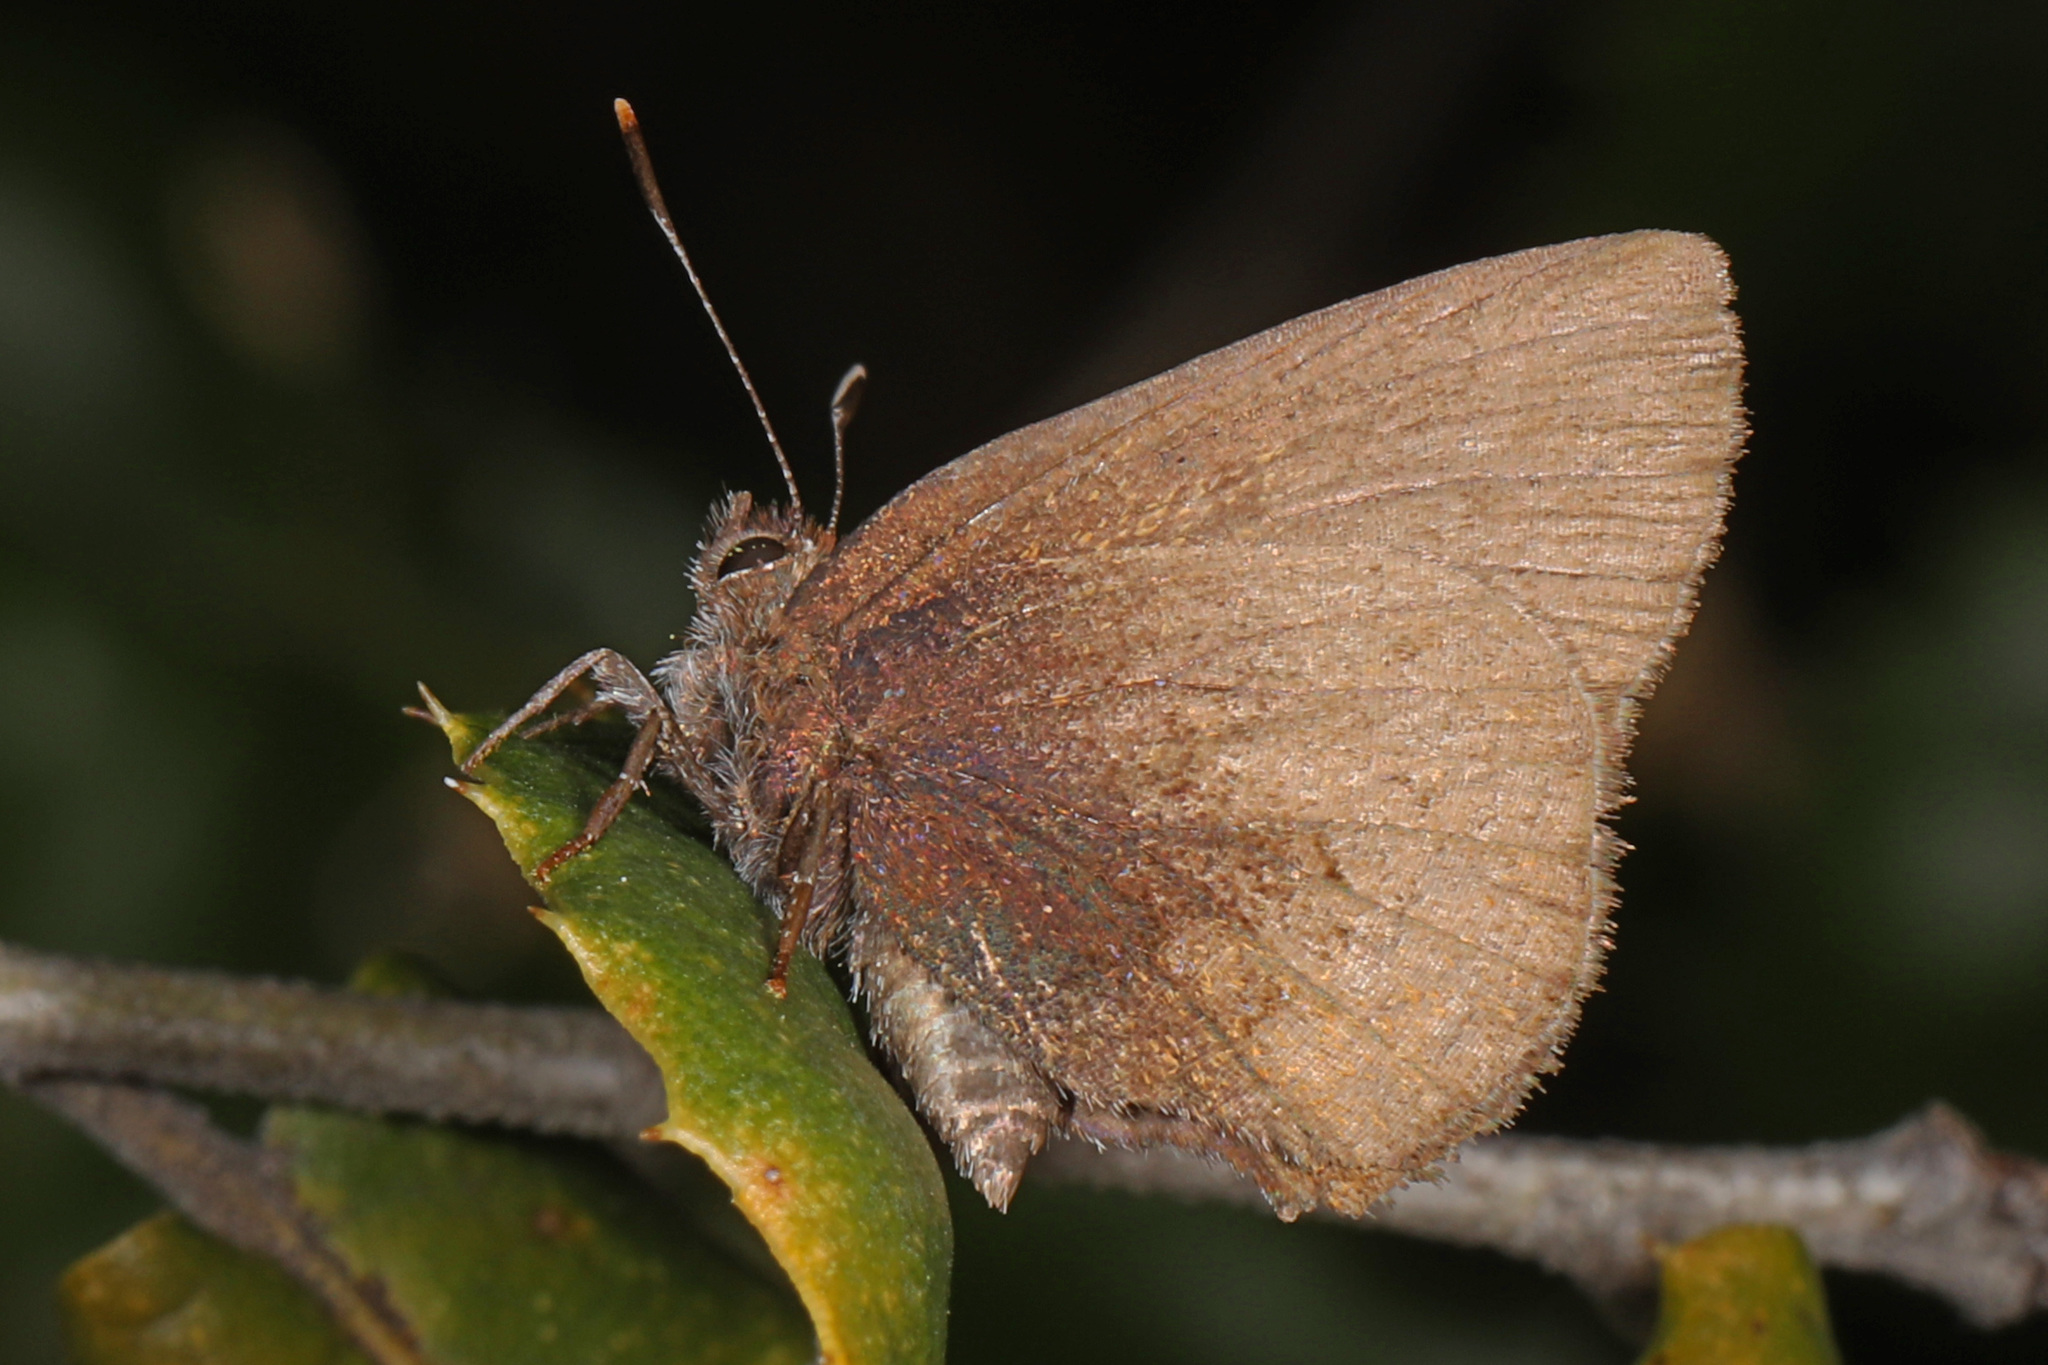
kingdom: Animalia
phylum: Arthropoda
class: Insecta
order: Lepidoptera
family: Lycaenidae
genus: Incisalia
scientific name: Incisalia irioides
